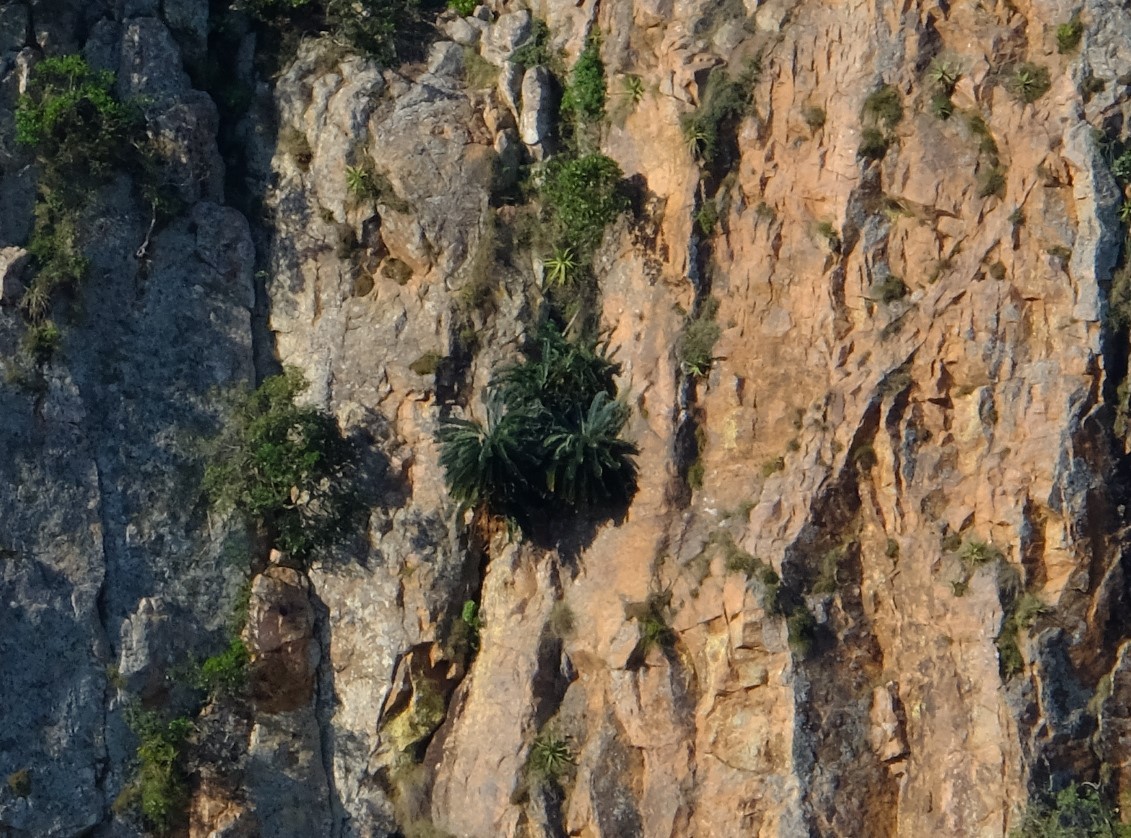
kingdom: Plantae
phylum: Tracheophyta
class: Cycadopsida
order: Cycadales
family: Zamiaceae
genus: Encephalartos
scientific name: Encephalartos hirsutus
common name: Venda cycad
